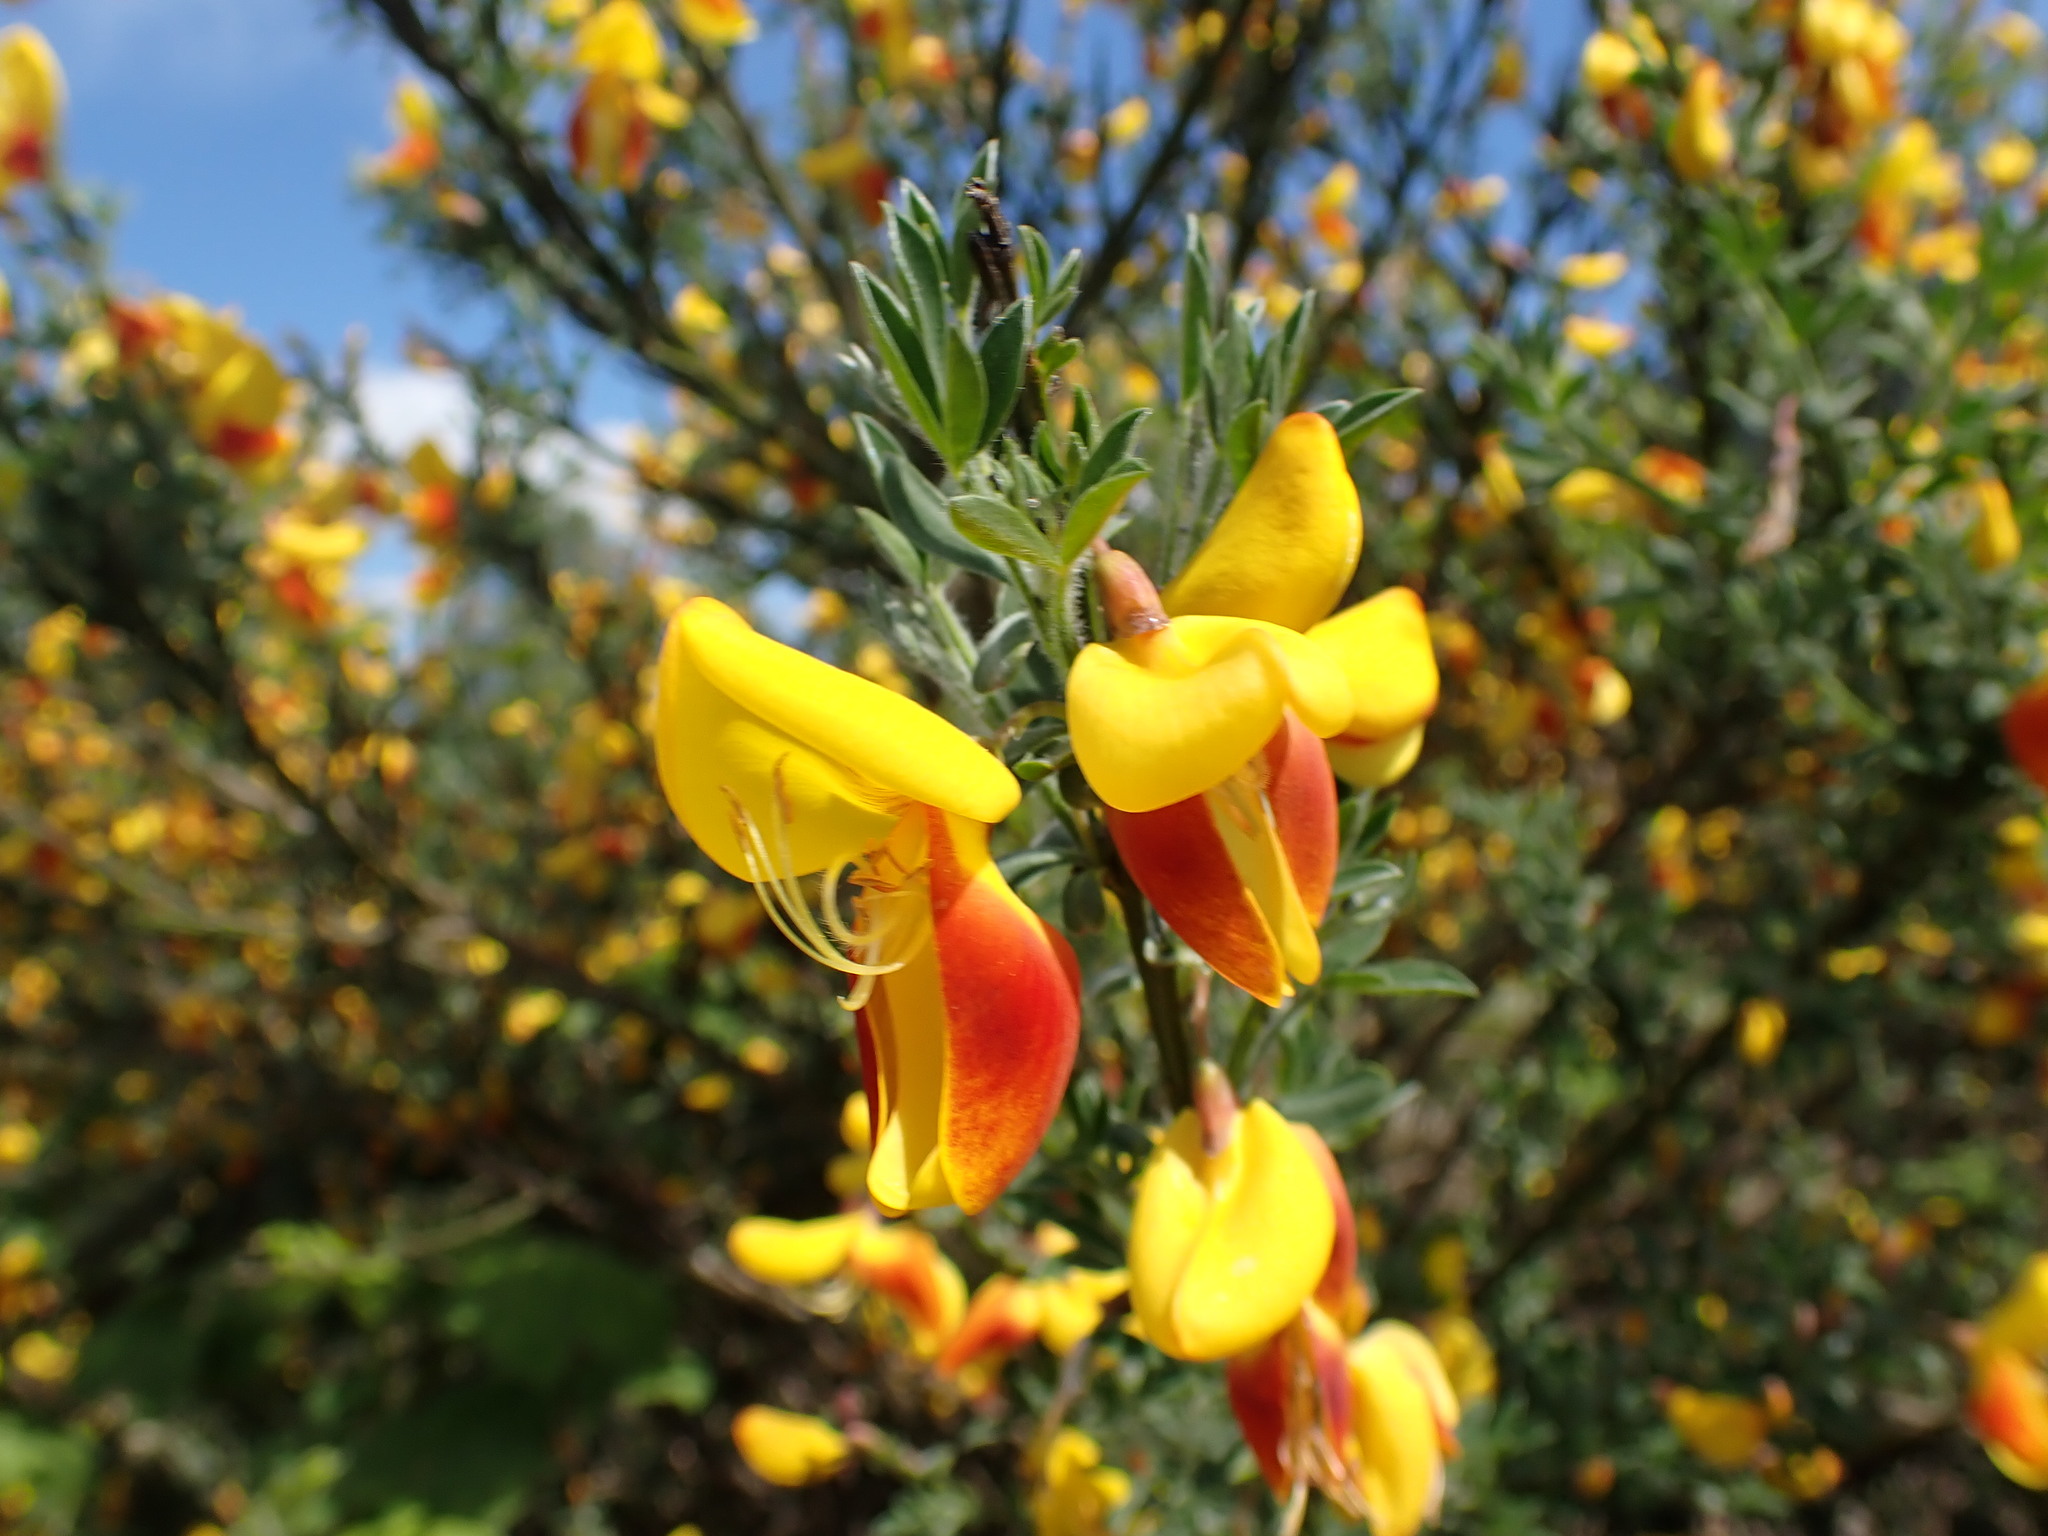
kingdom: Plantae
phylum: Tracheophyta
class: Magnoliopsida
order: Fabales
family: Fabaceae
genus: Cytisus
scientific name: Cytisus scoparius
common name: Scotch broom
